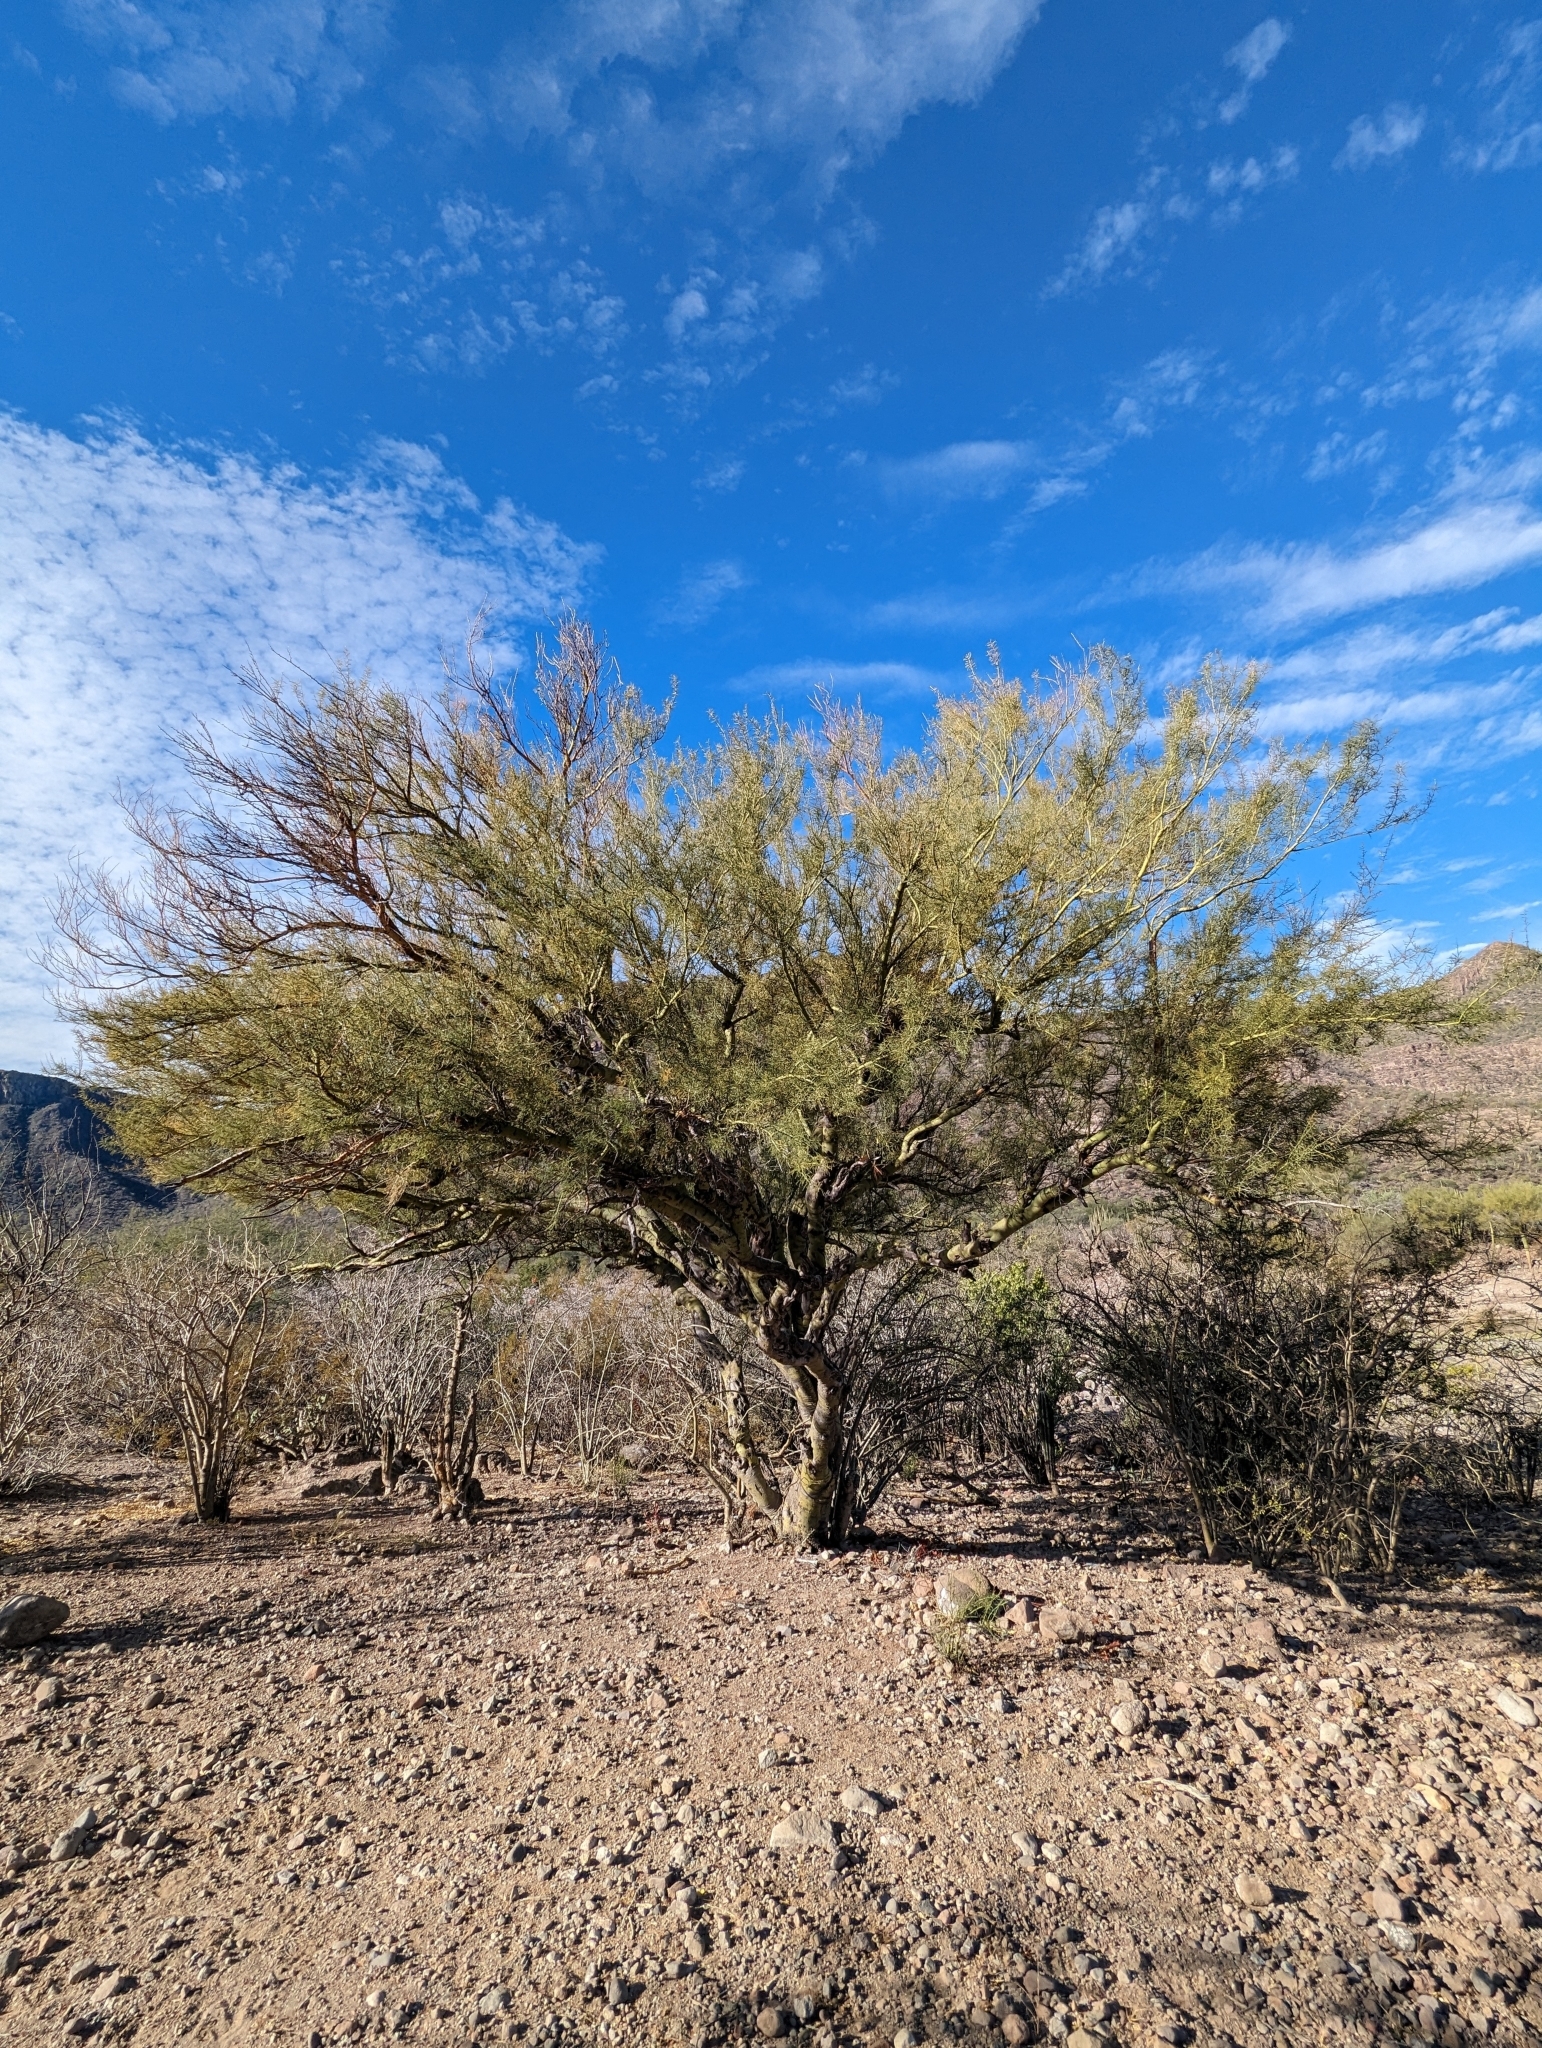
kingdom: Plantae
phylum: Tracheophyta
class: Magnoliopsida
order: Fabales
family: Fabaceae
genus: Parkinsonia
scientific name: Parkinsonia microphylla
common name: Yellow paloverde
